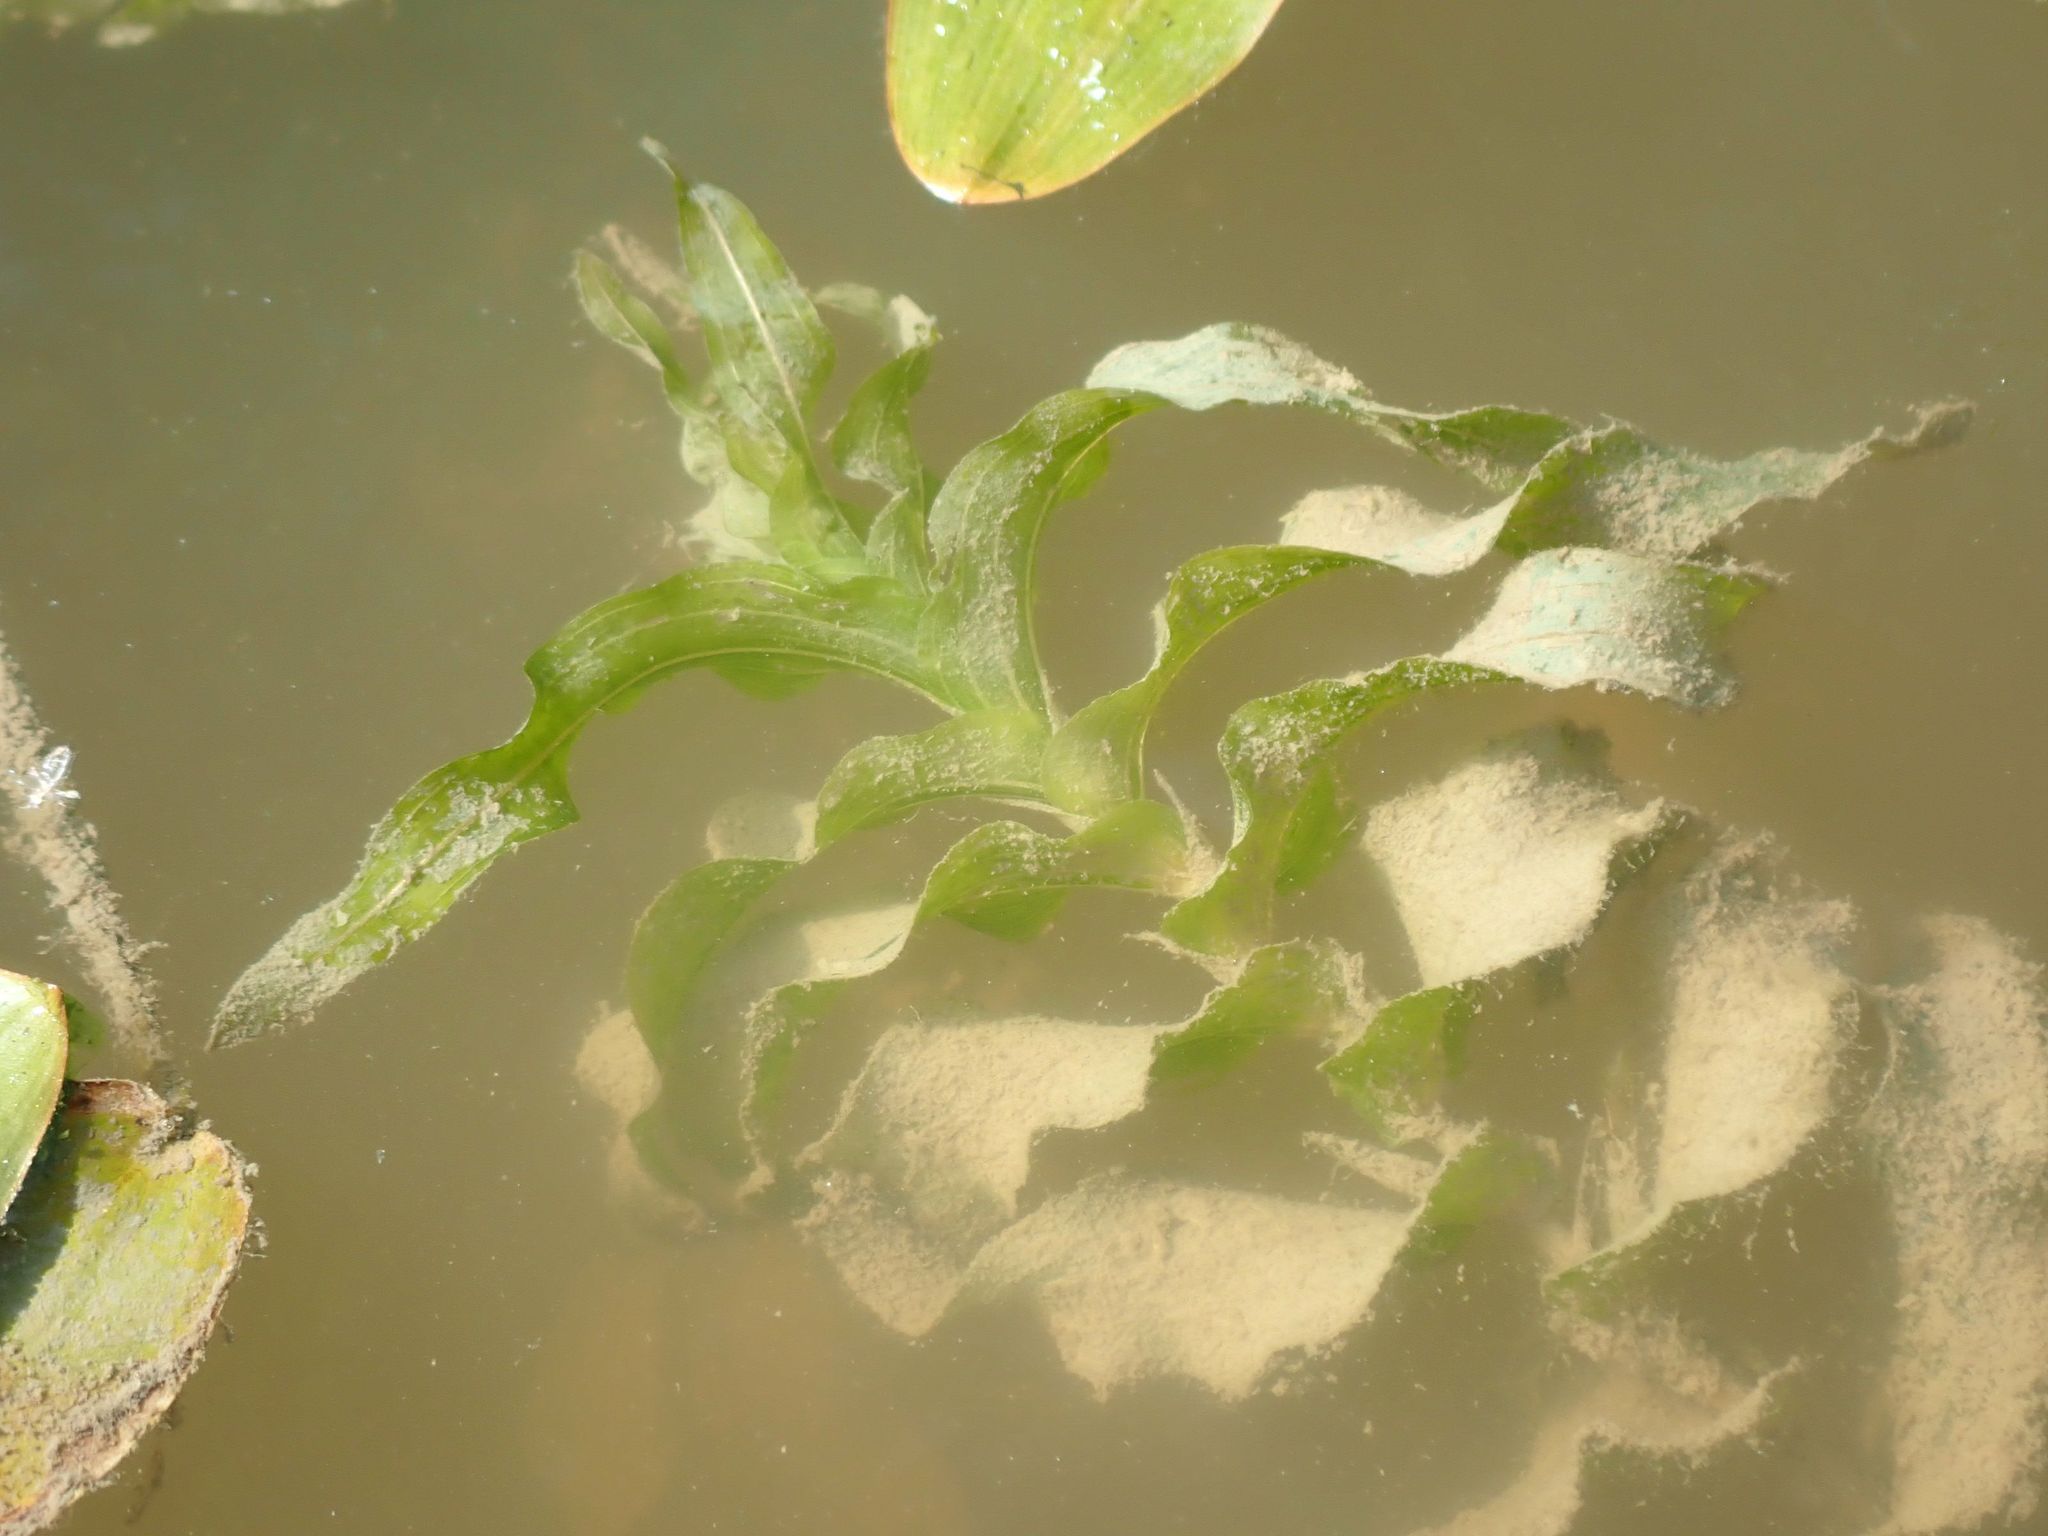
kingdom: Plantae
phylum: Tracheophyta
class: Liliopsida
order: Alismatales
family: Potamogetonaceae
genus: Potamogeton
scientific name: Potamogeton richardsonii
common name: Richardson's pondweed
